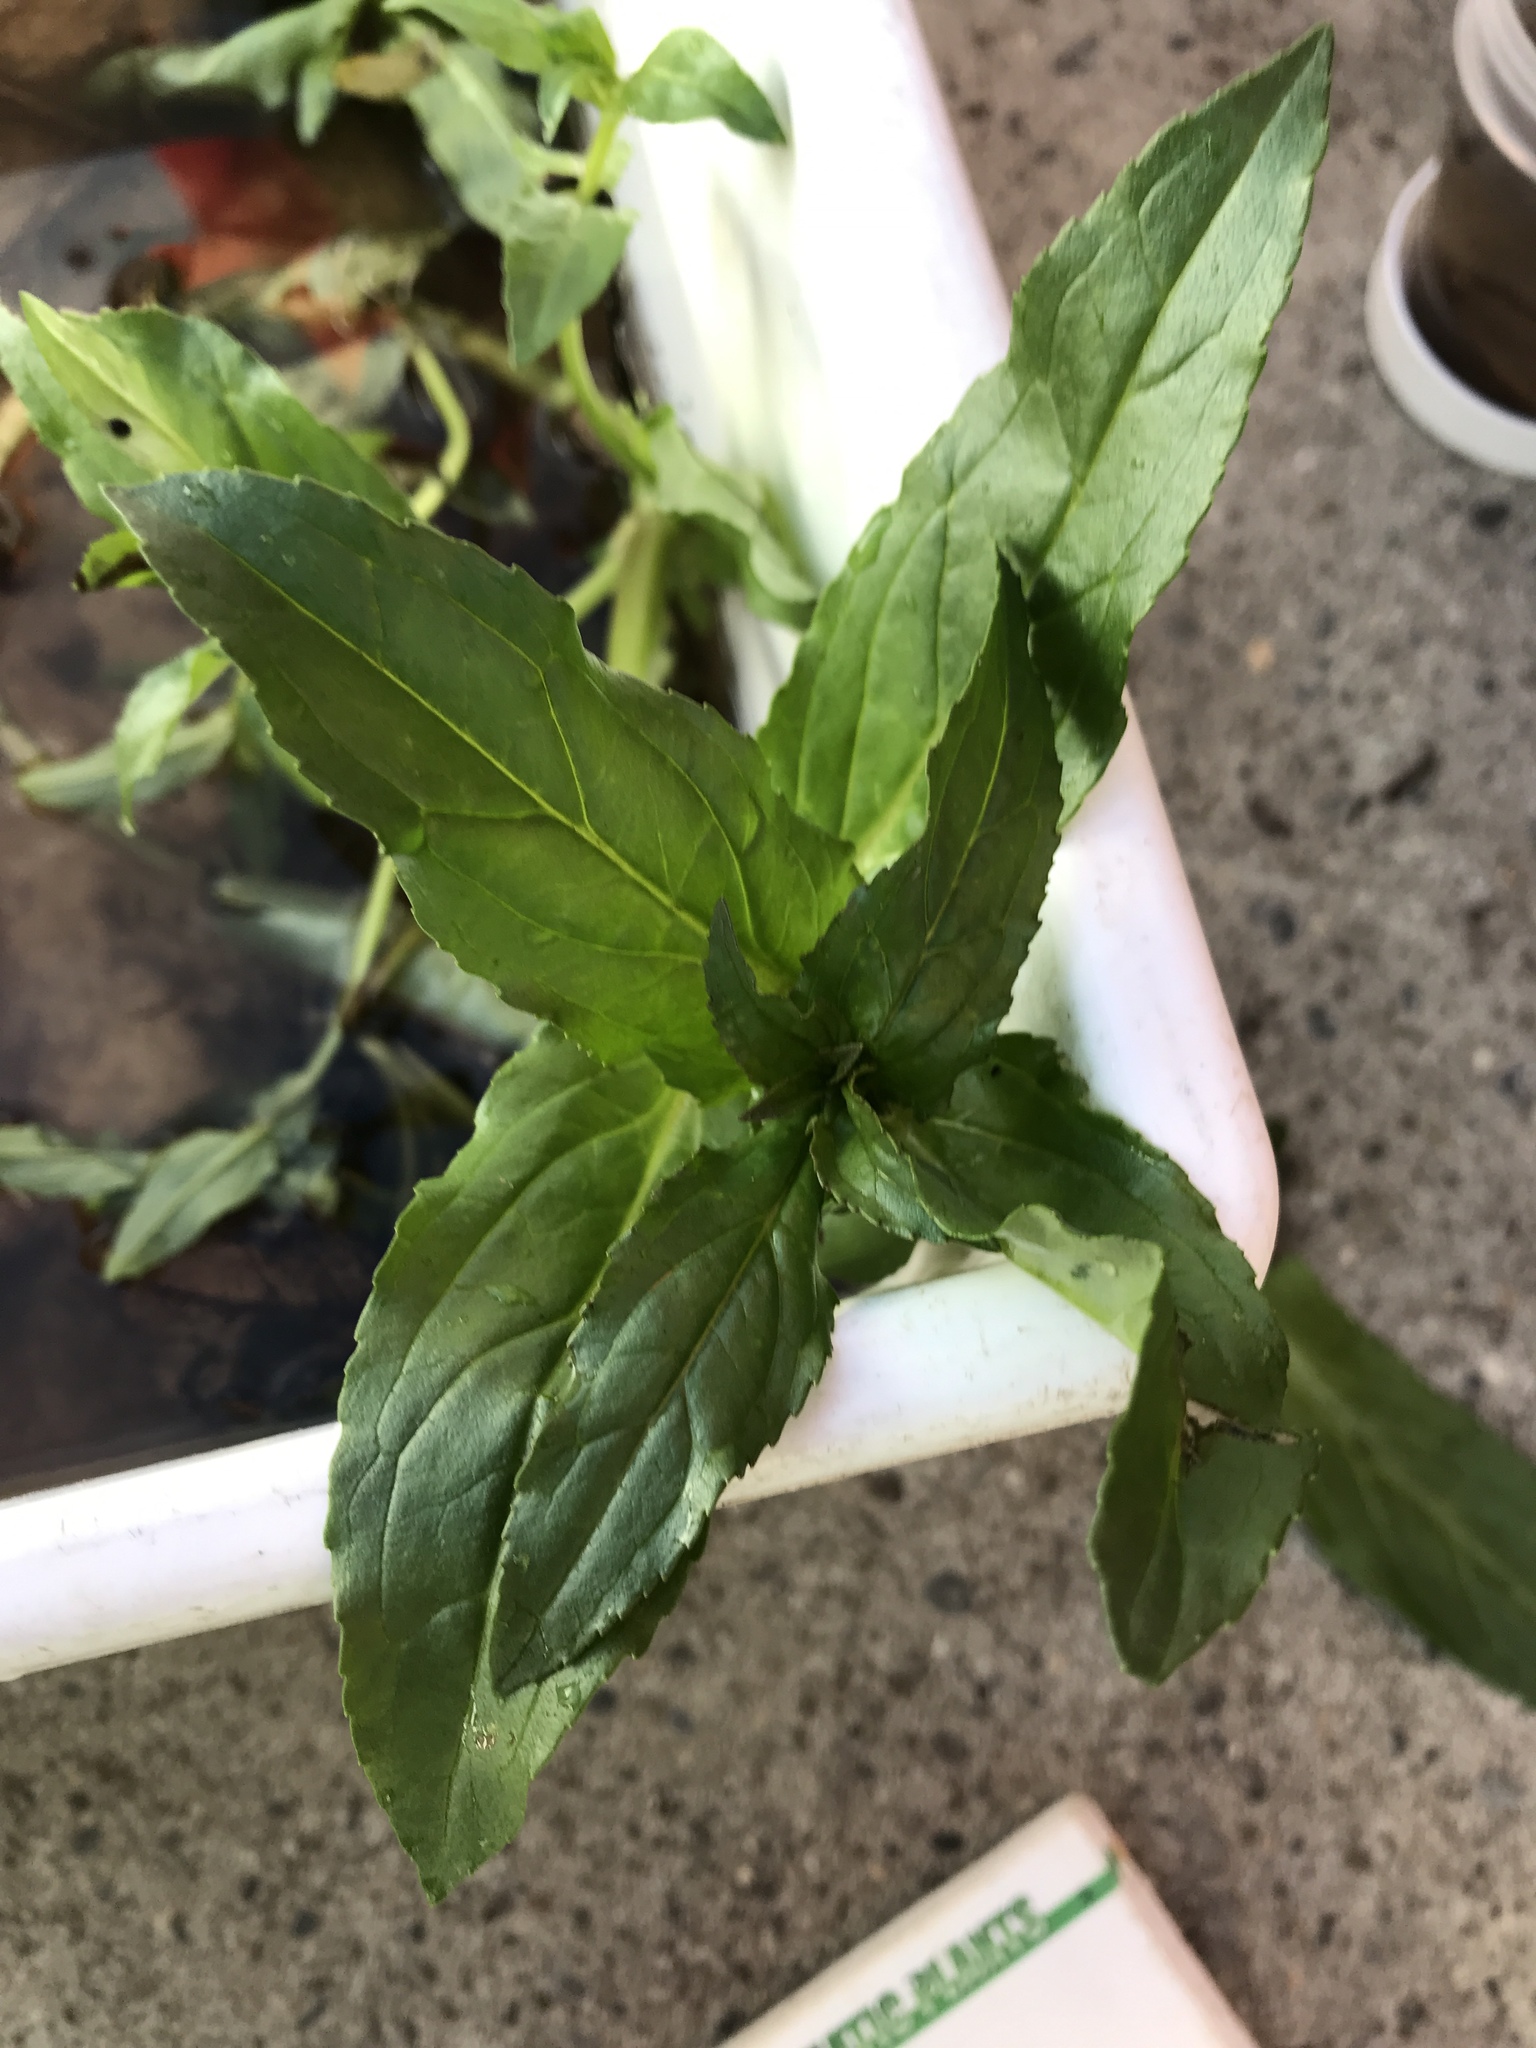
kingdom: Plantae
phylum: Tracheophyta
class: Magnoliopsida
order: Lamiales
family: Plantaginaceae
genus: Veronica
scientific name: Veronica anagallis-aquatica
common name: Water speedwell
